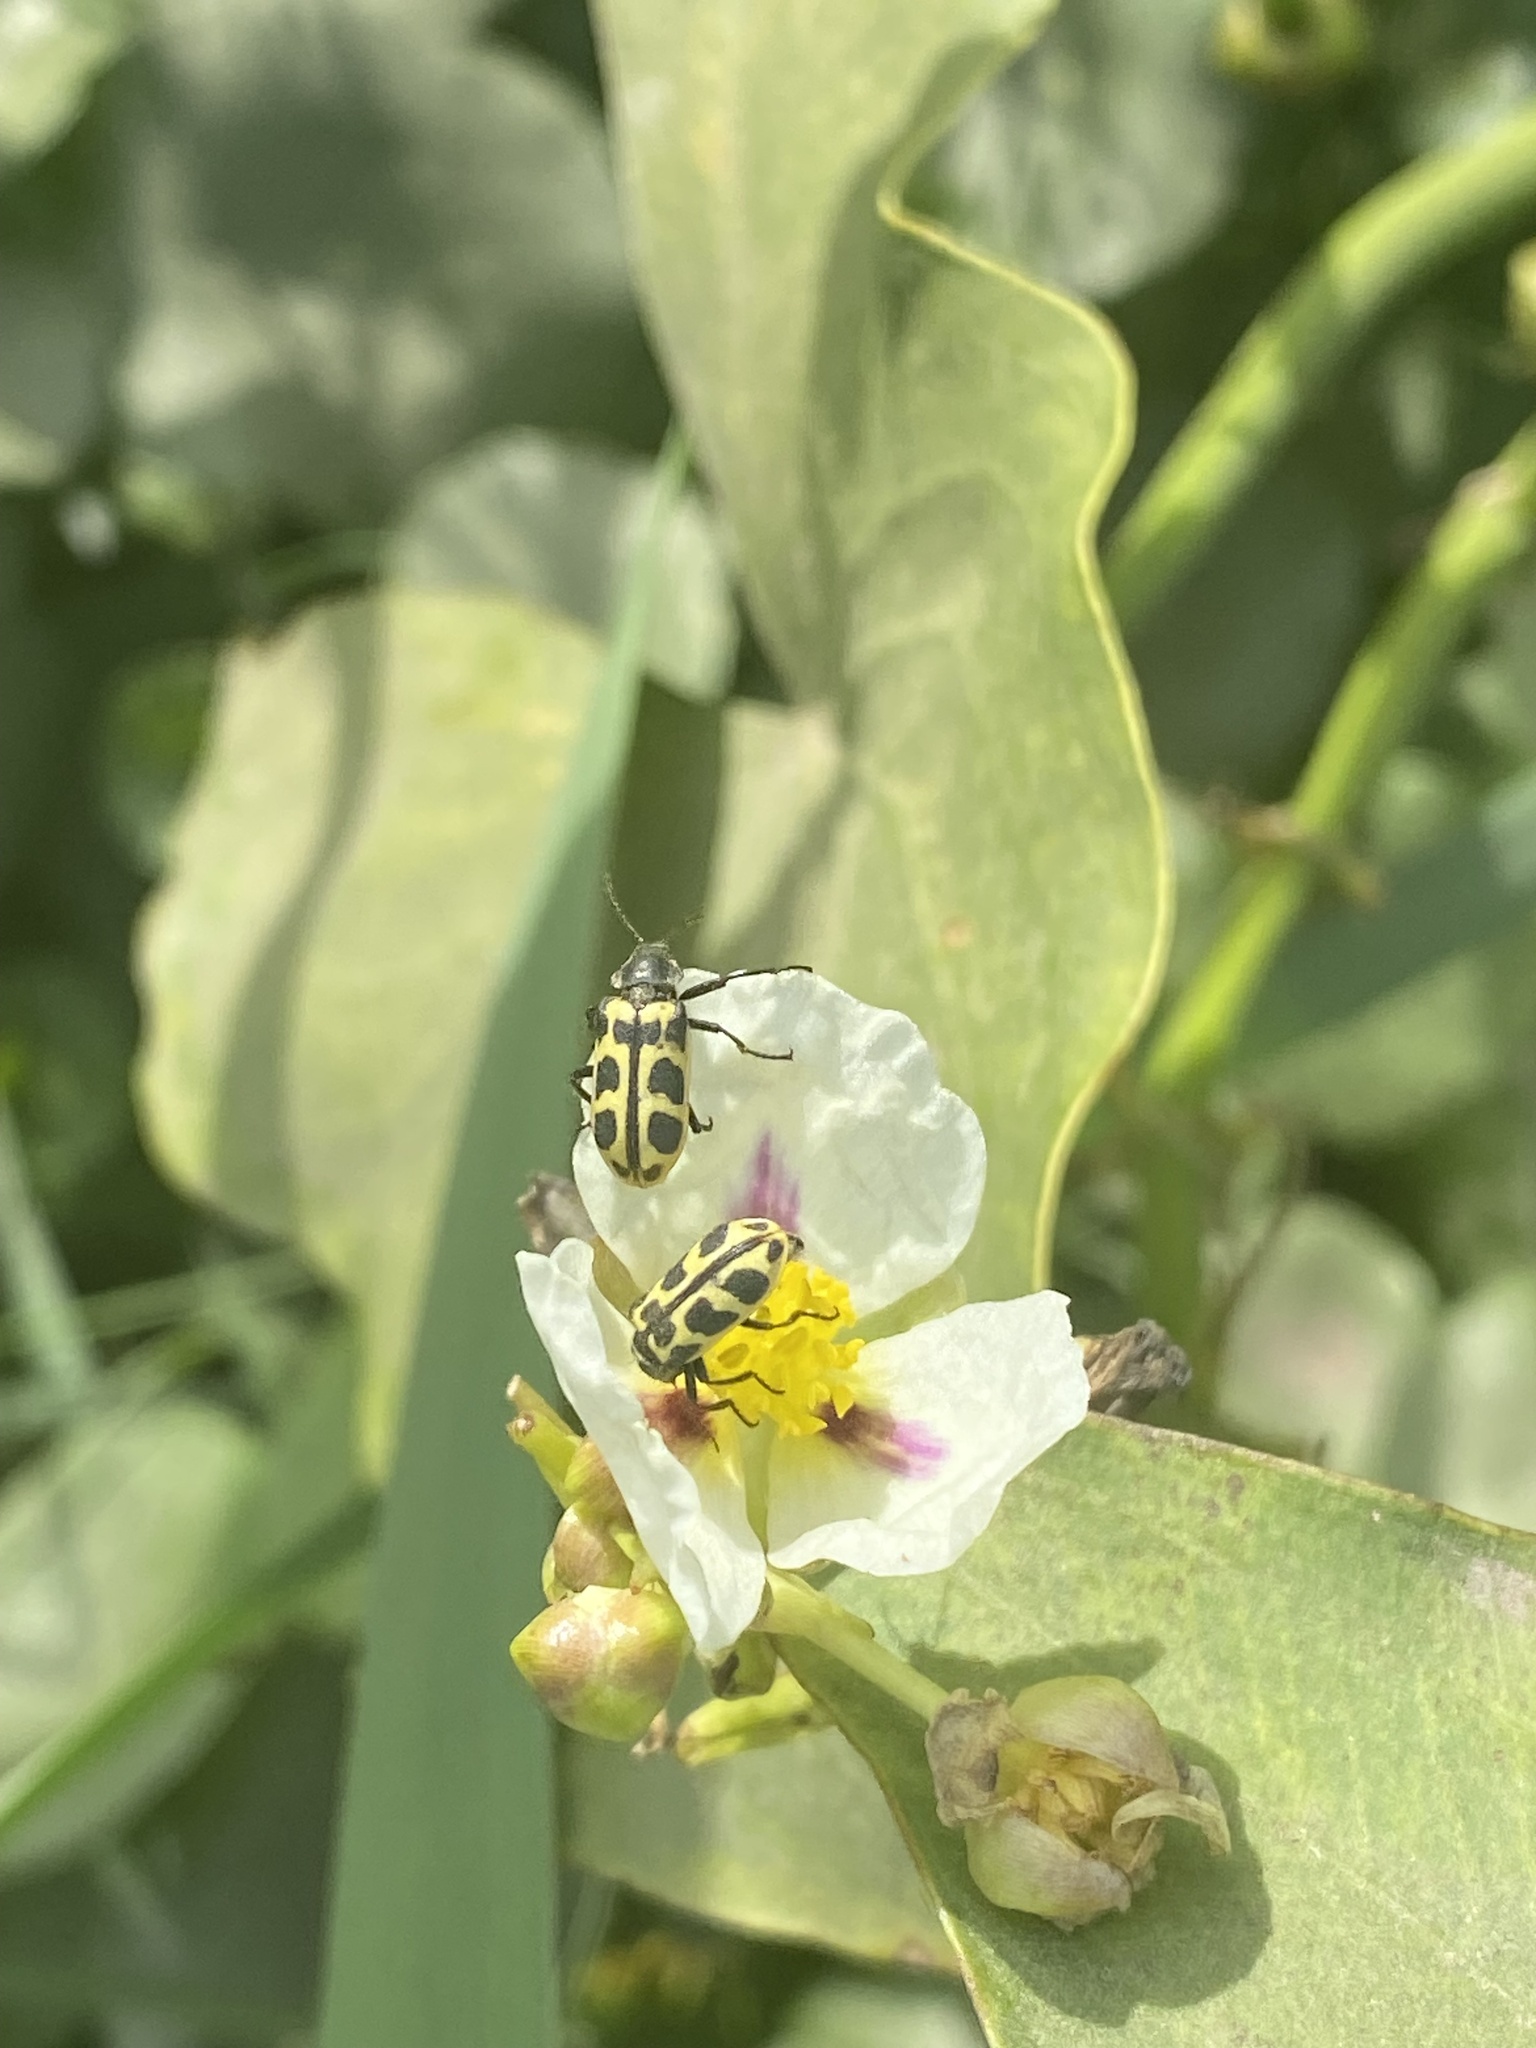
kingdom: Animalia
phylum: Arthropoda
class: Insecta
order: Coleoptera
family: Melyridae
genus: Astylus
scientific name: Astylus atromaculatus
